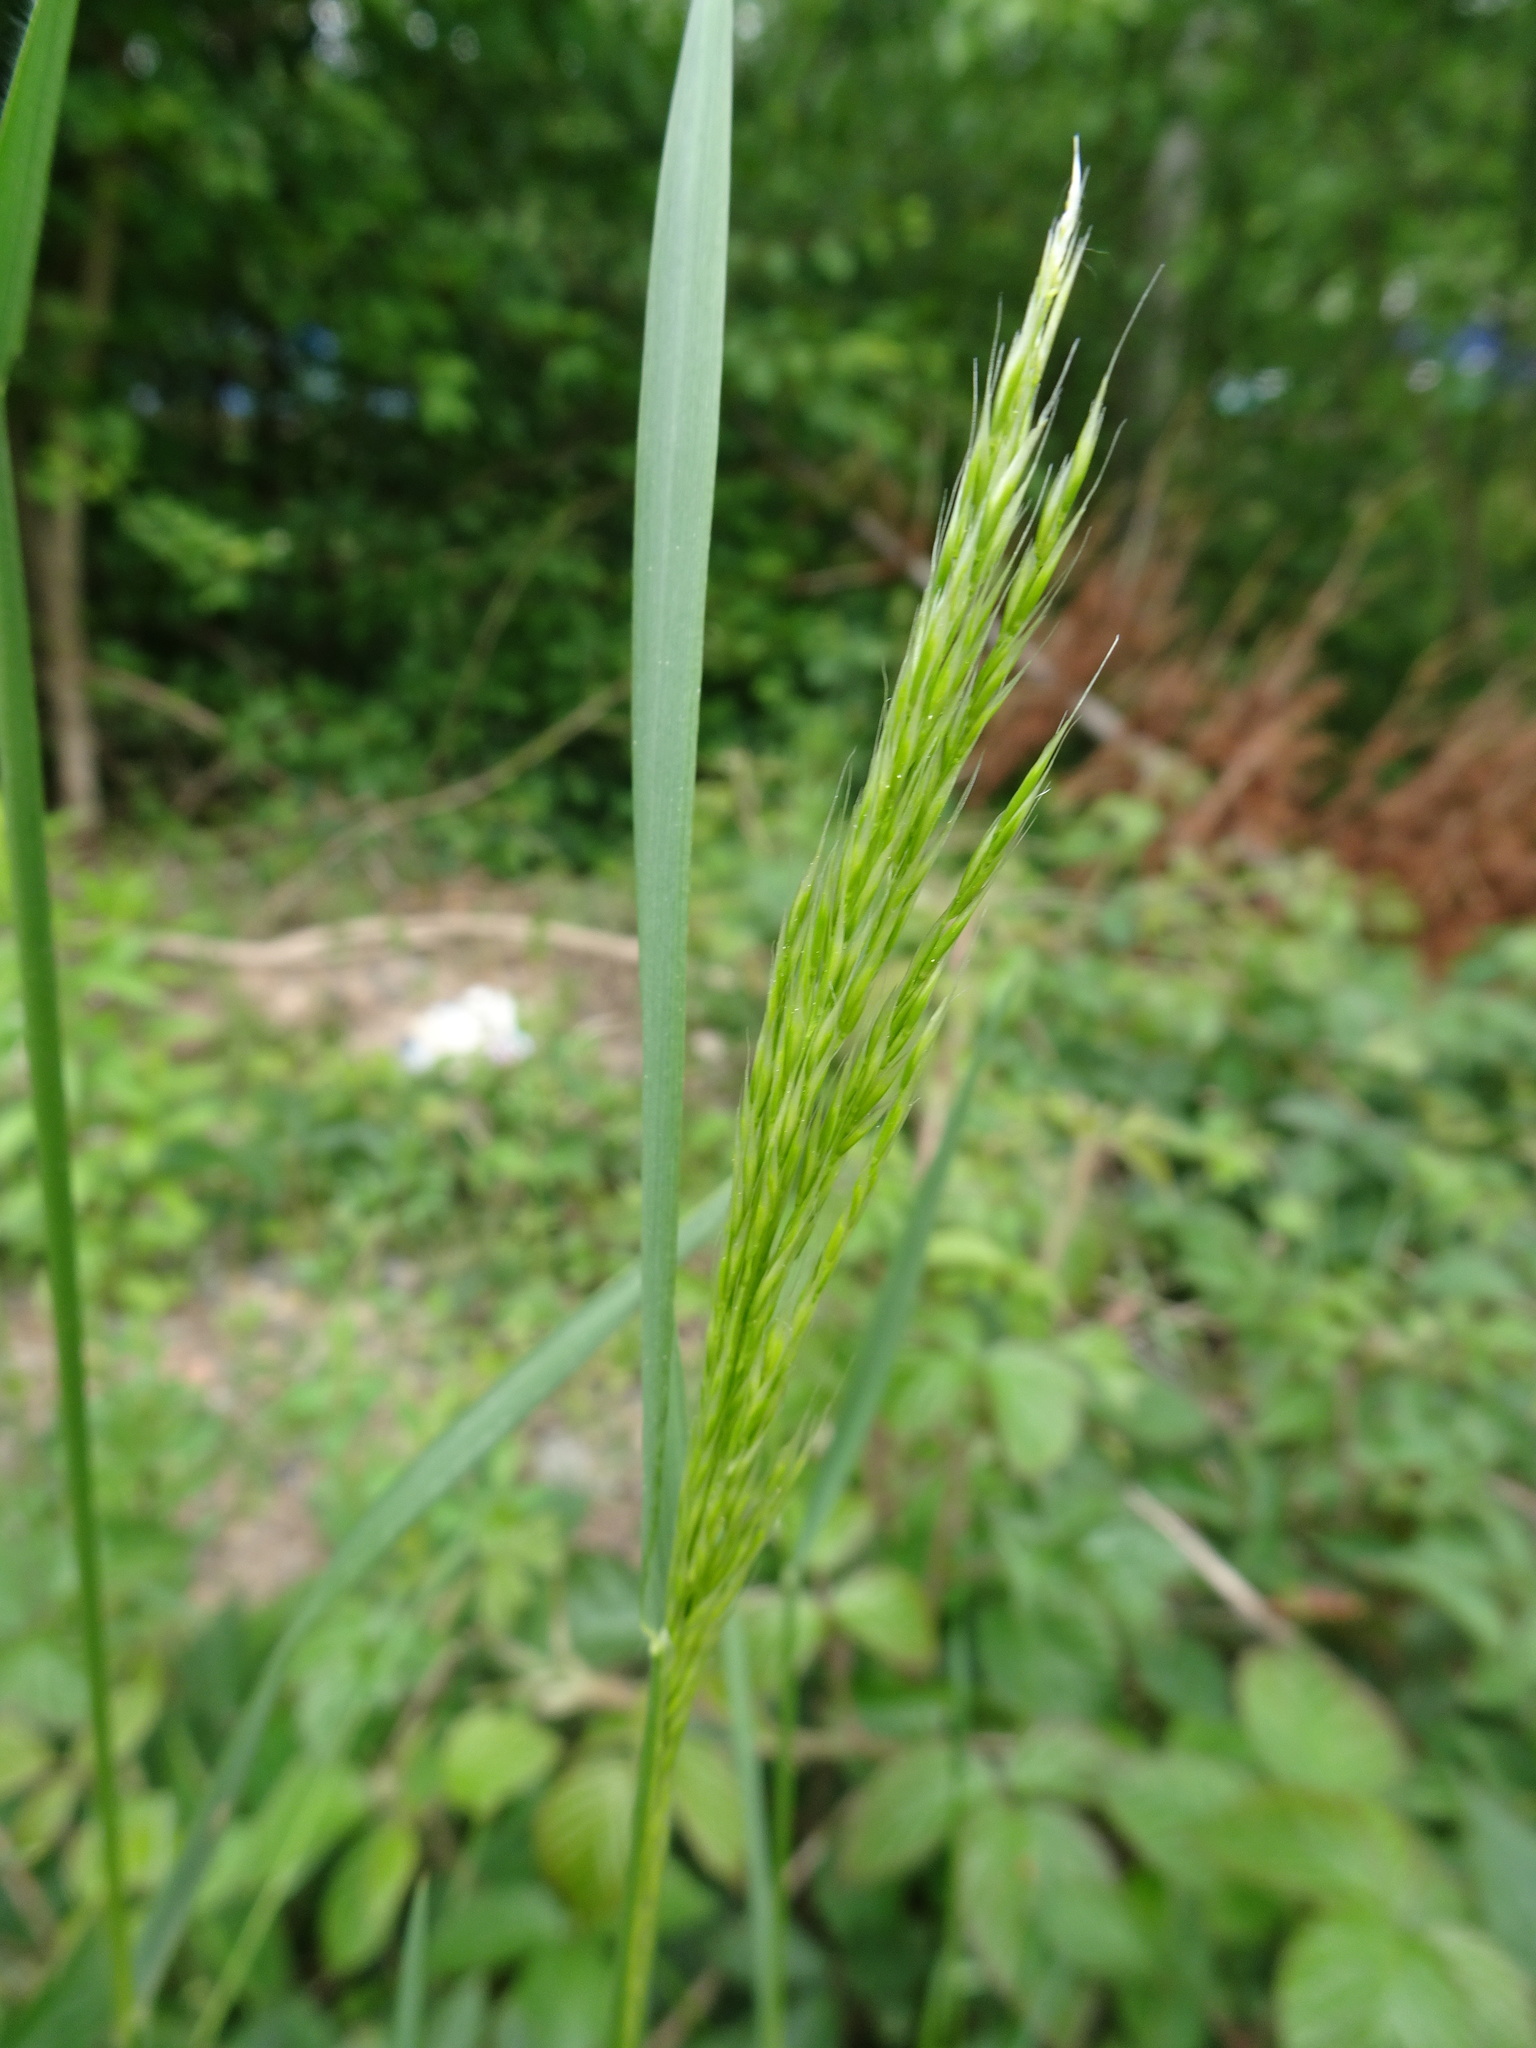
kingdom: Plantae
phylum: Tracheophyta
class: Liliopsida
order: Poales
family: Poaceae
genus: Trisetum
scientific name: Trisetum flavescens
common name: Yellow oat-grass
